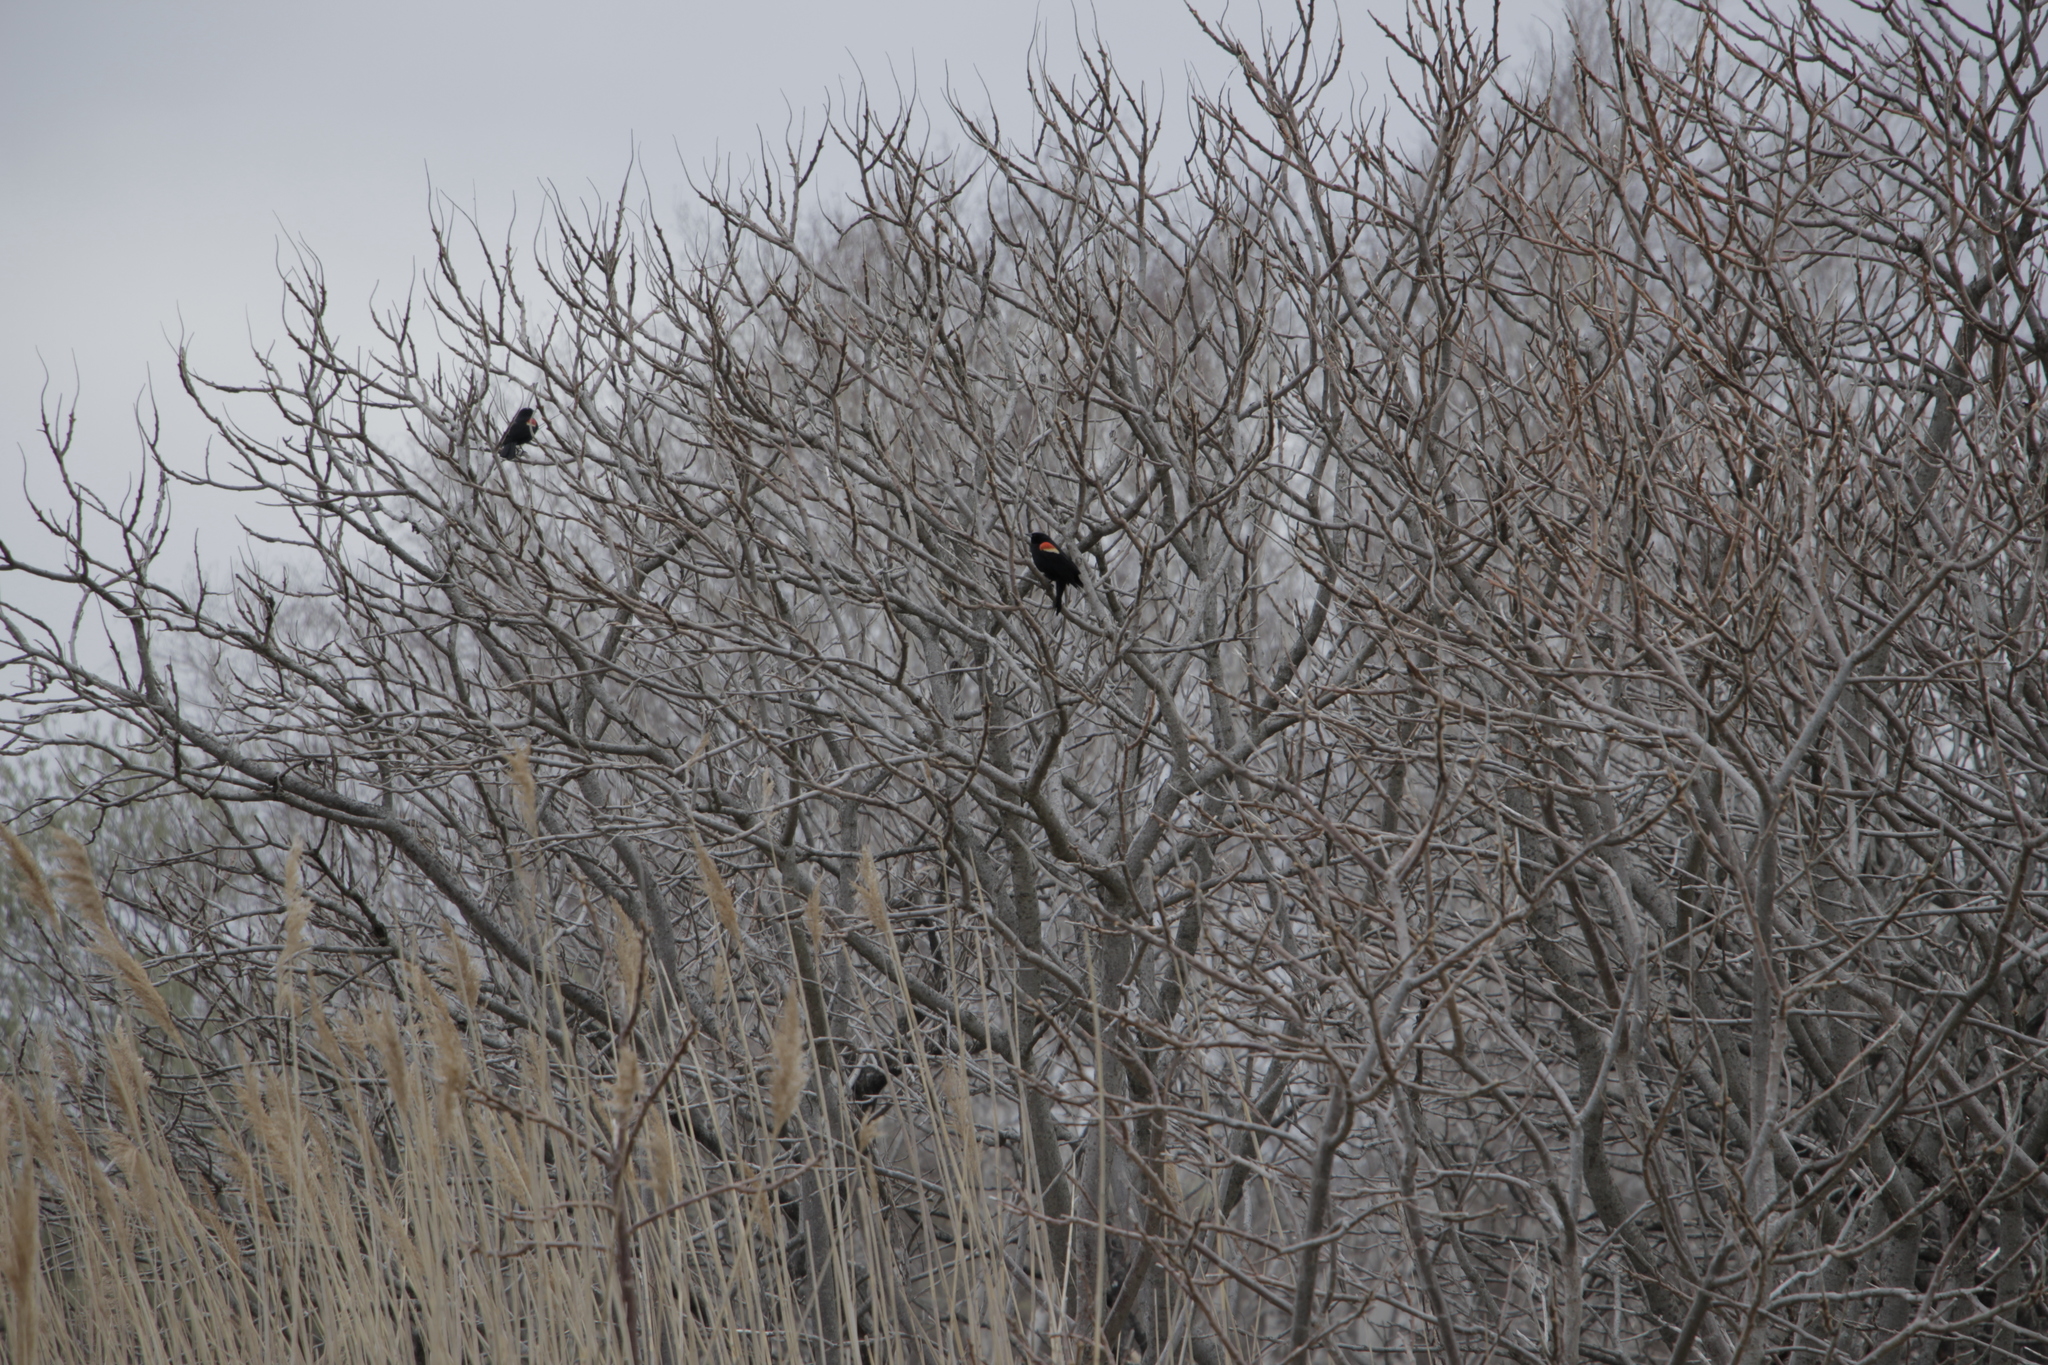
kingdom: Animalia
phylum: Chordata
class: Aves
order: Passeriformes
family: Icteridae
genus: Agelaius
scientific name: Agelaius phoeniceus
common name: Red-winged blackbird
